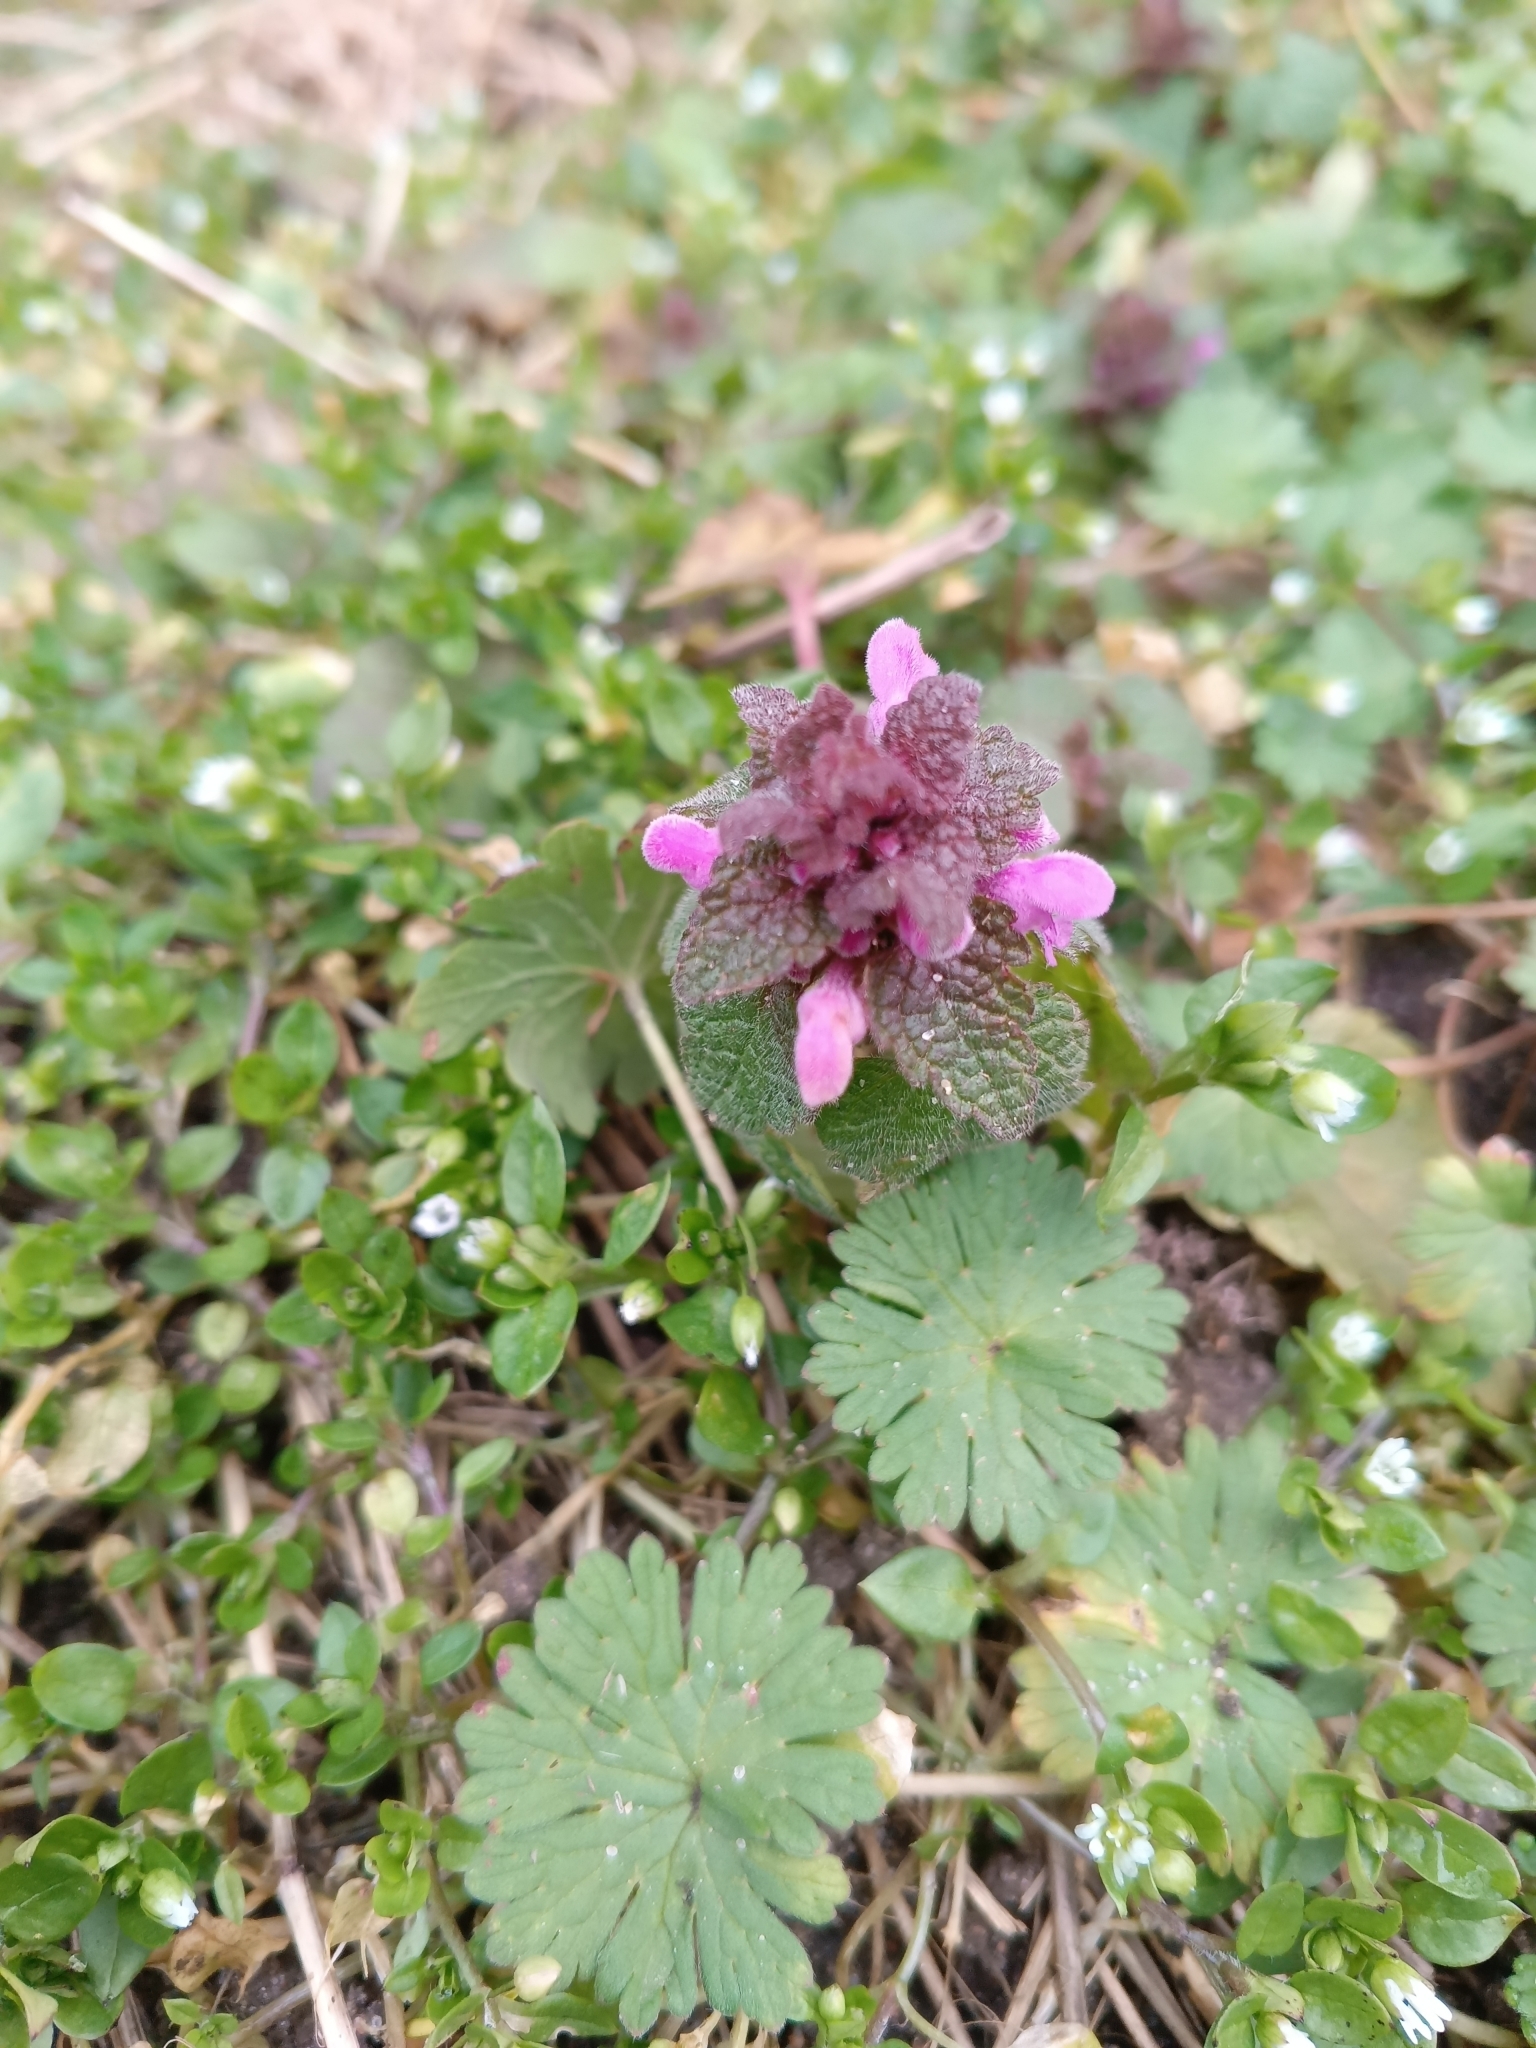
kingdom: Plantae
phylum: Tracheophyta
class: Magnoliopsida
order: Lamiales
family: Lamiaceae
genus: Lamium
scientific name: Lamium purpureum
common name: Red dead-nettle
